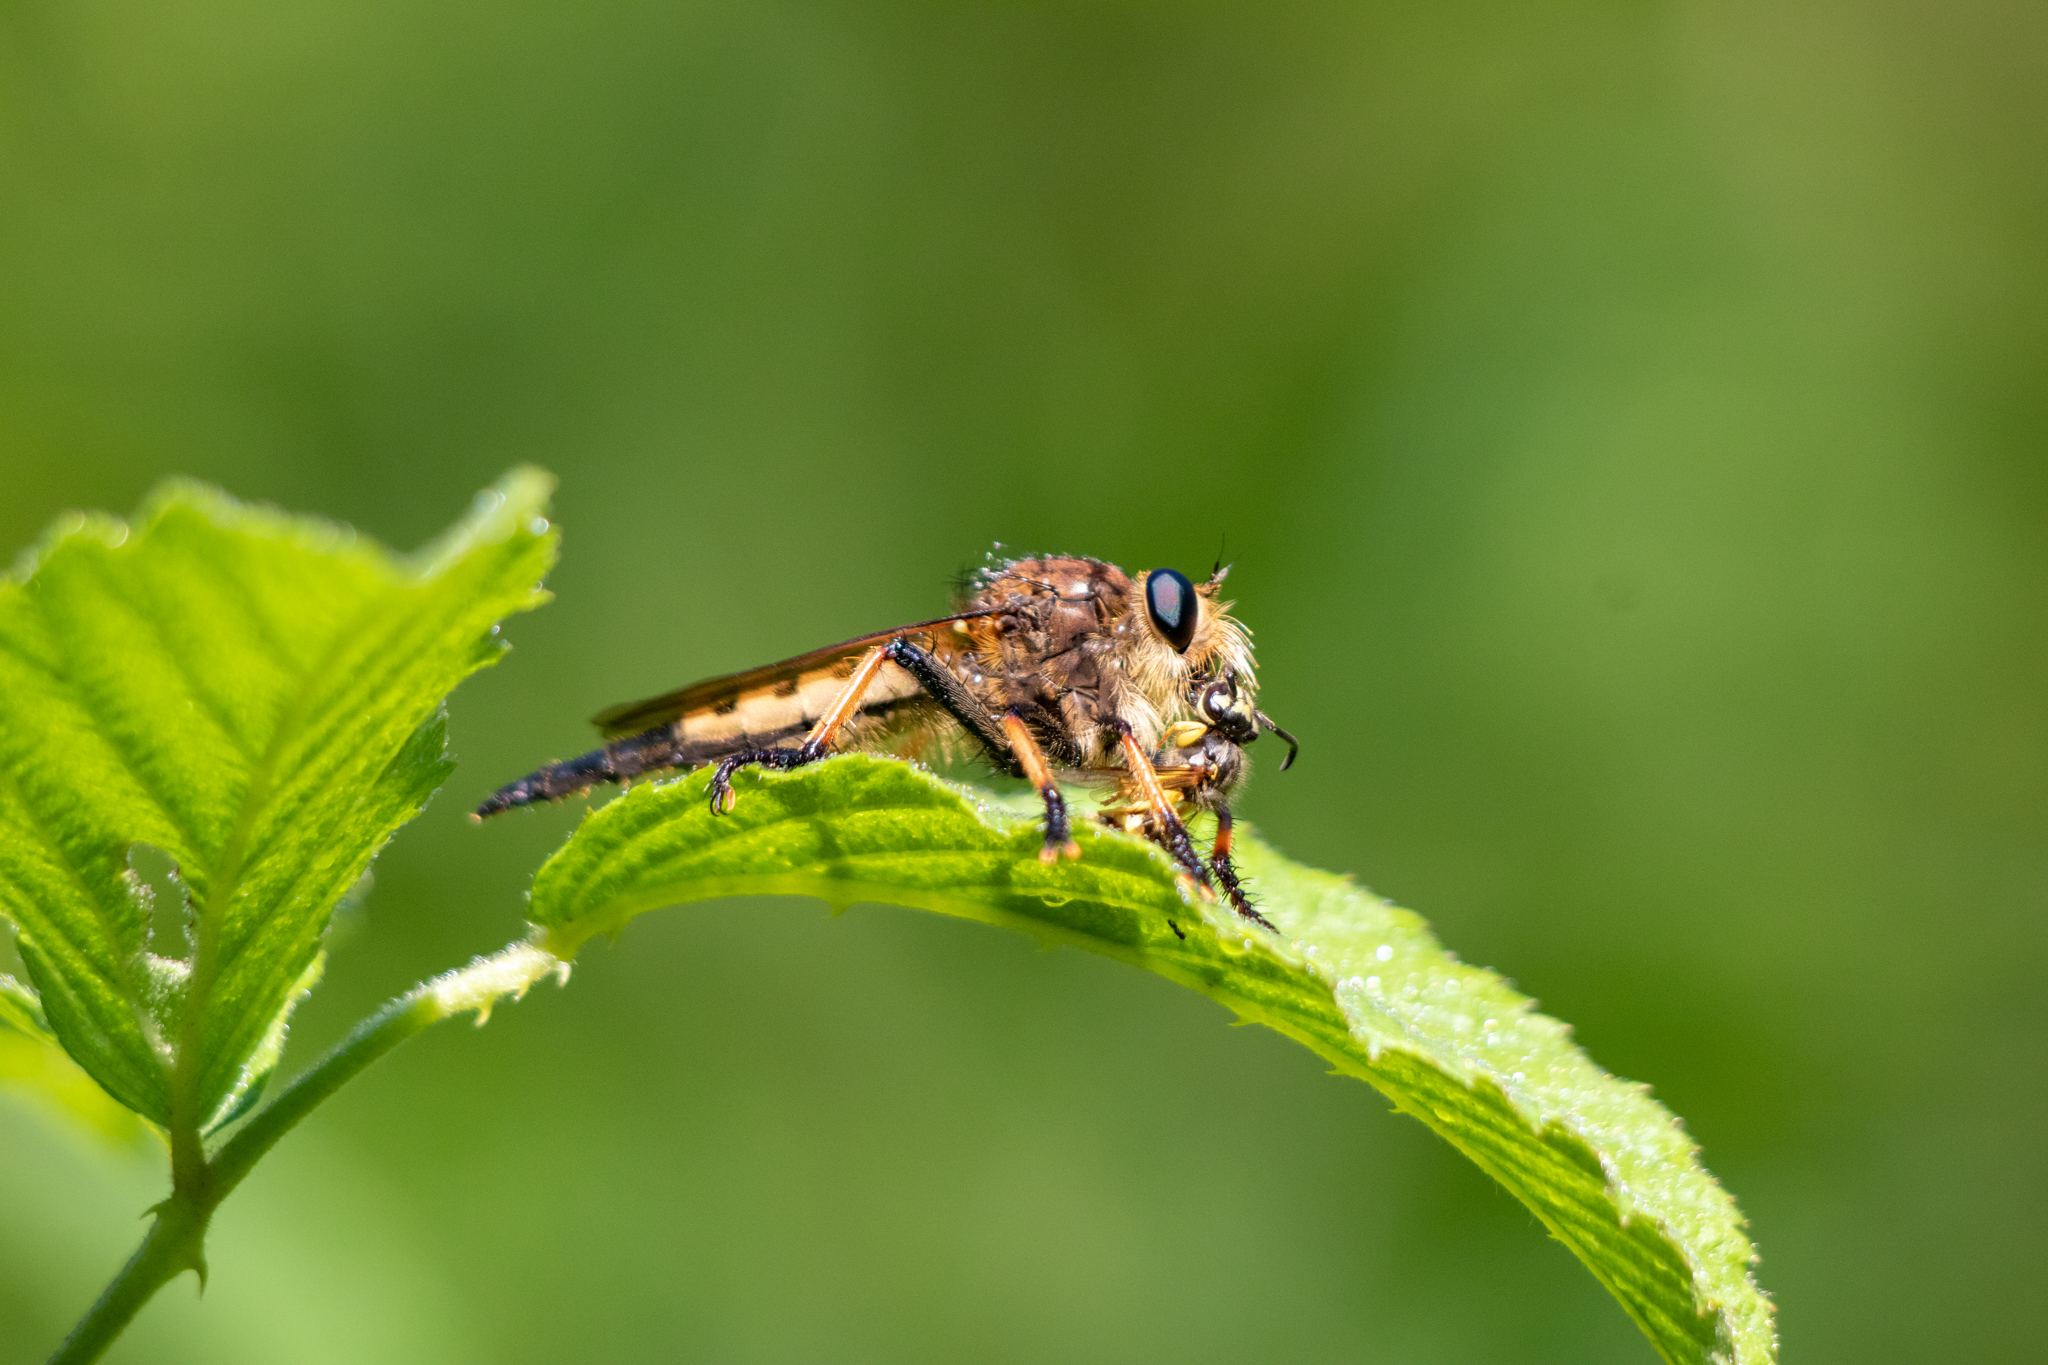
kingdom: Animalia
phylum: Arthropoda
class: Insecta
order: Diptera
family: Asilidae
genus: Promachus
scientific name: Promachus rufipes
